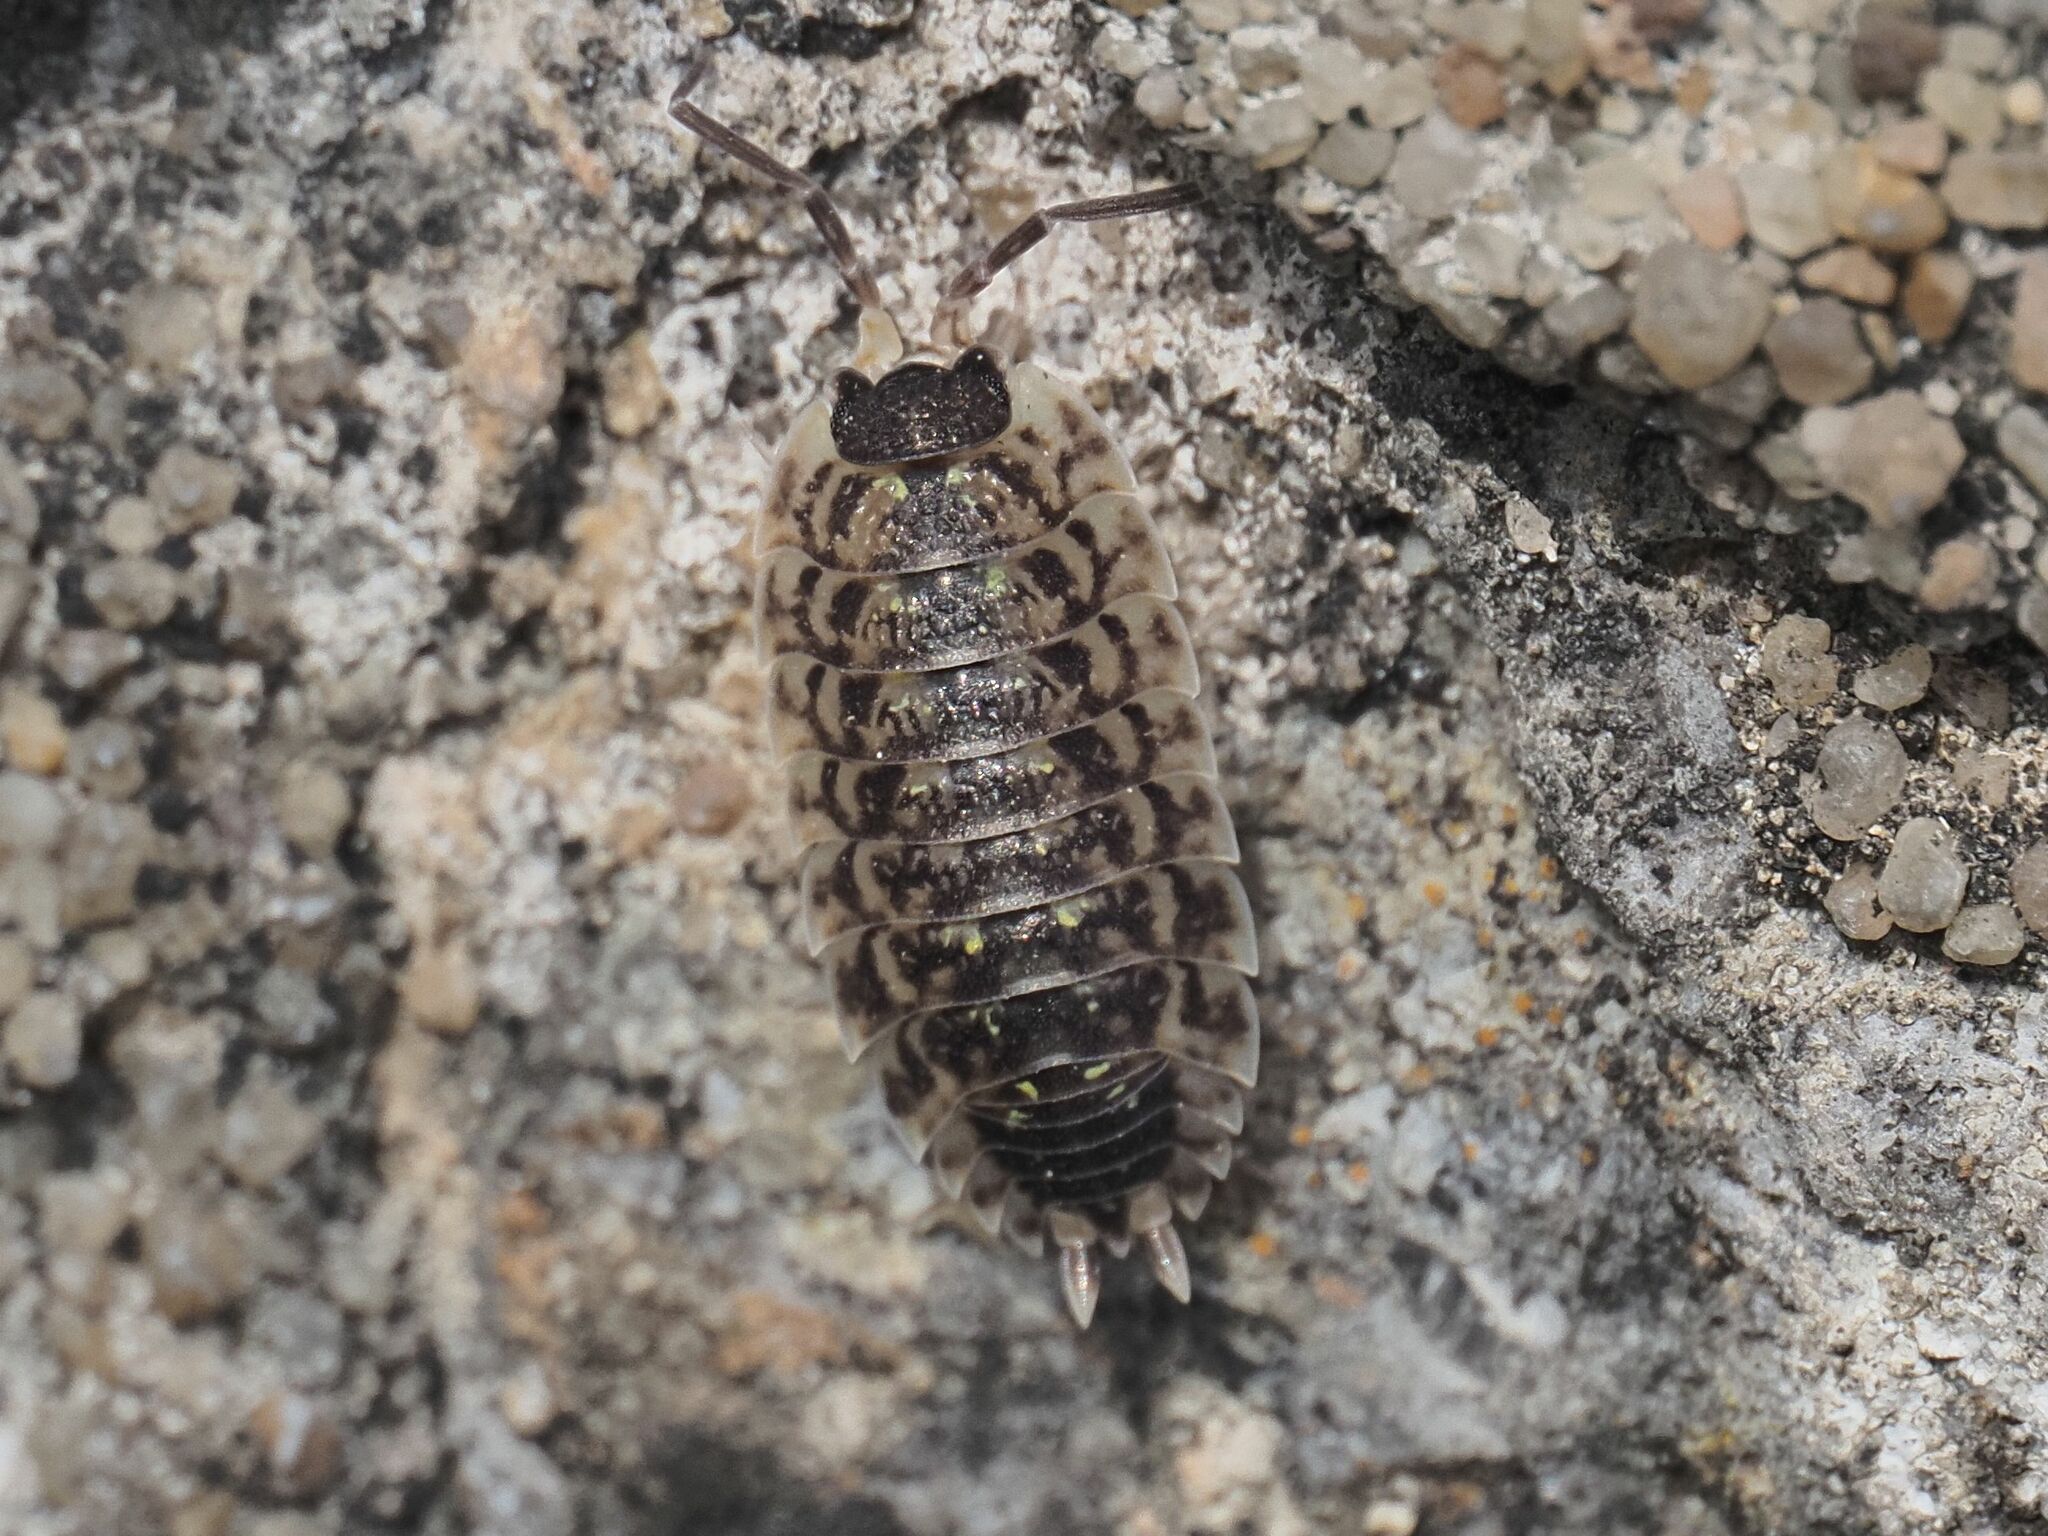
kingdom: Animalia
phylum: Arthropoda
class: Malacostraca
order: Isopoda
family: Porcellionidae
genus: Porcellio
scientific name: Porcellio spinicornis
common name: Painted woodlouse
